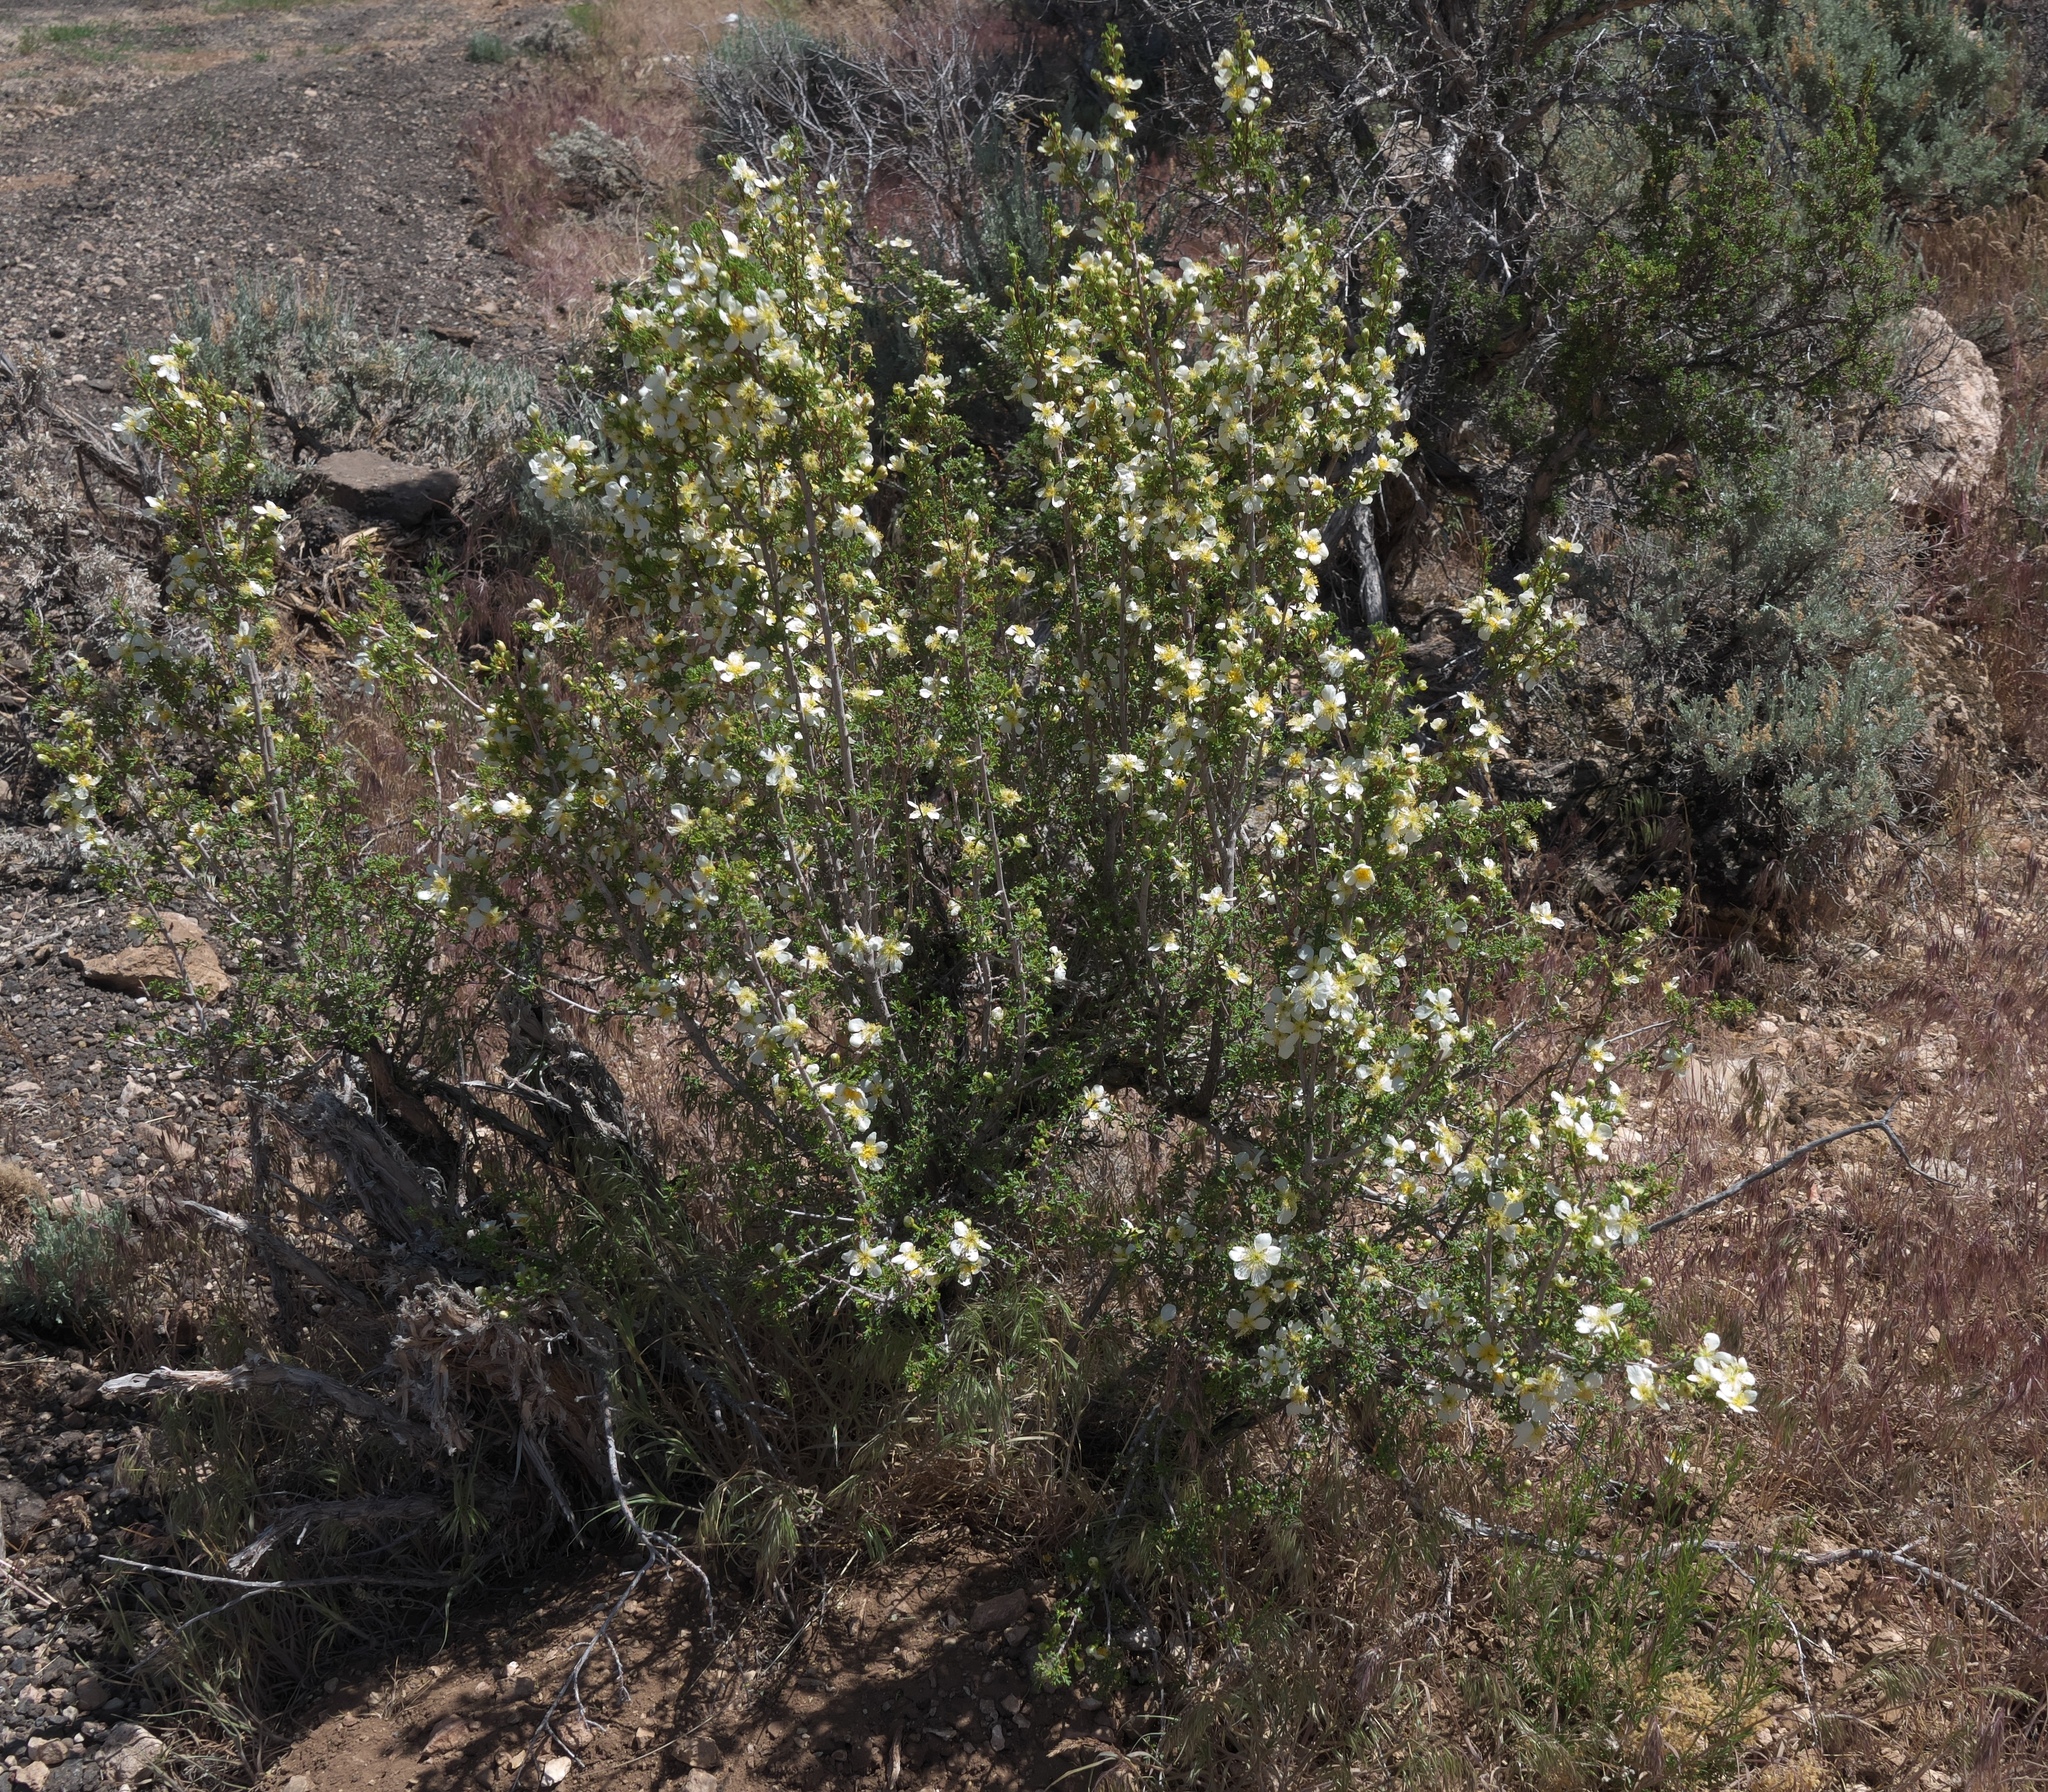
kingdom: Plantae
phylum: Tracheophyta
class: Magnoliopsida
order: Rosales
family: Rosaceae
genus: Purshia
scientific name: Purshia stansburiana
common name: Stansbury's cliffrose
